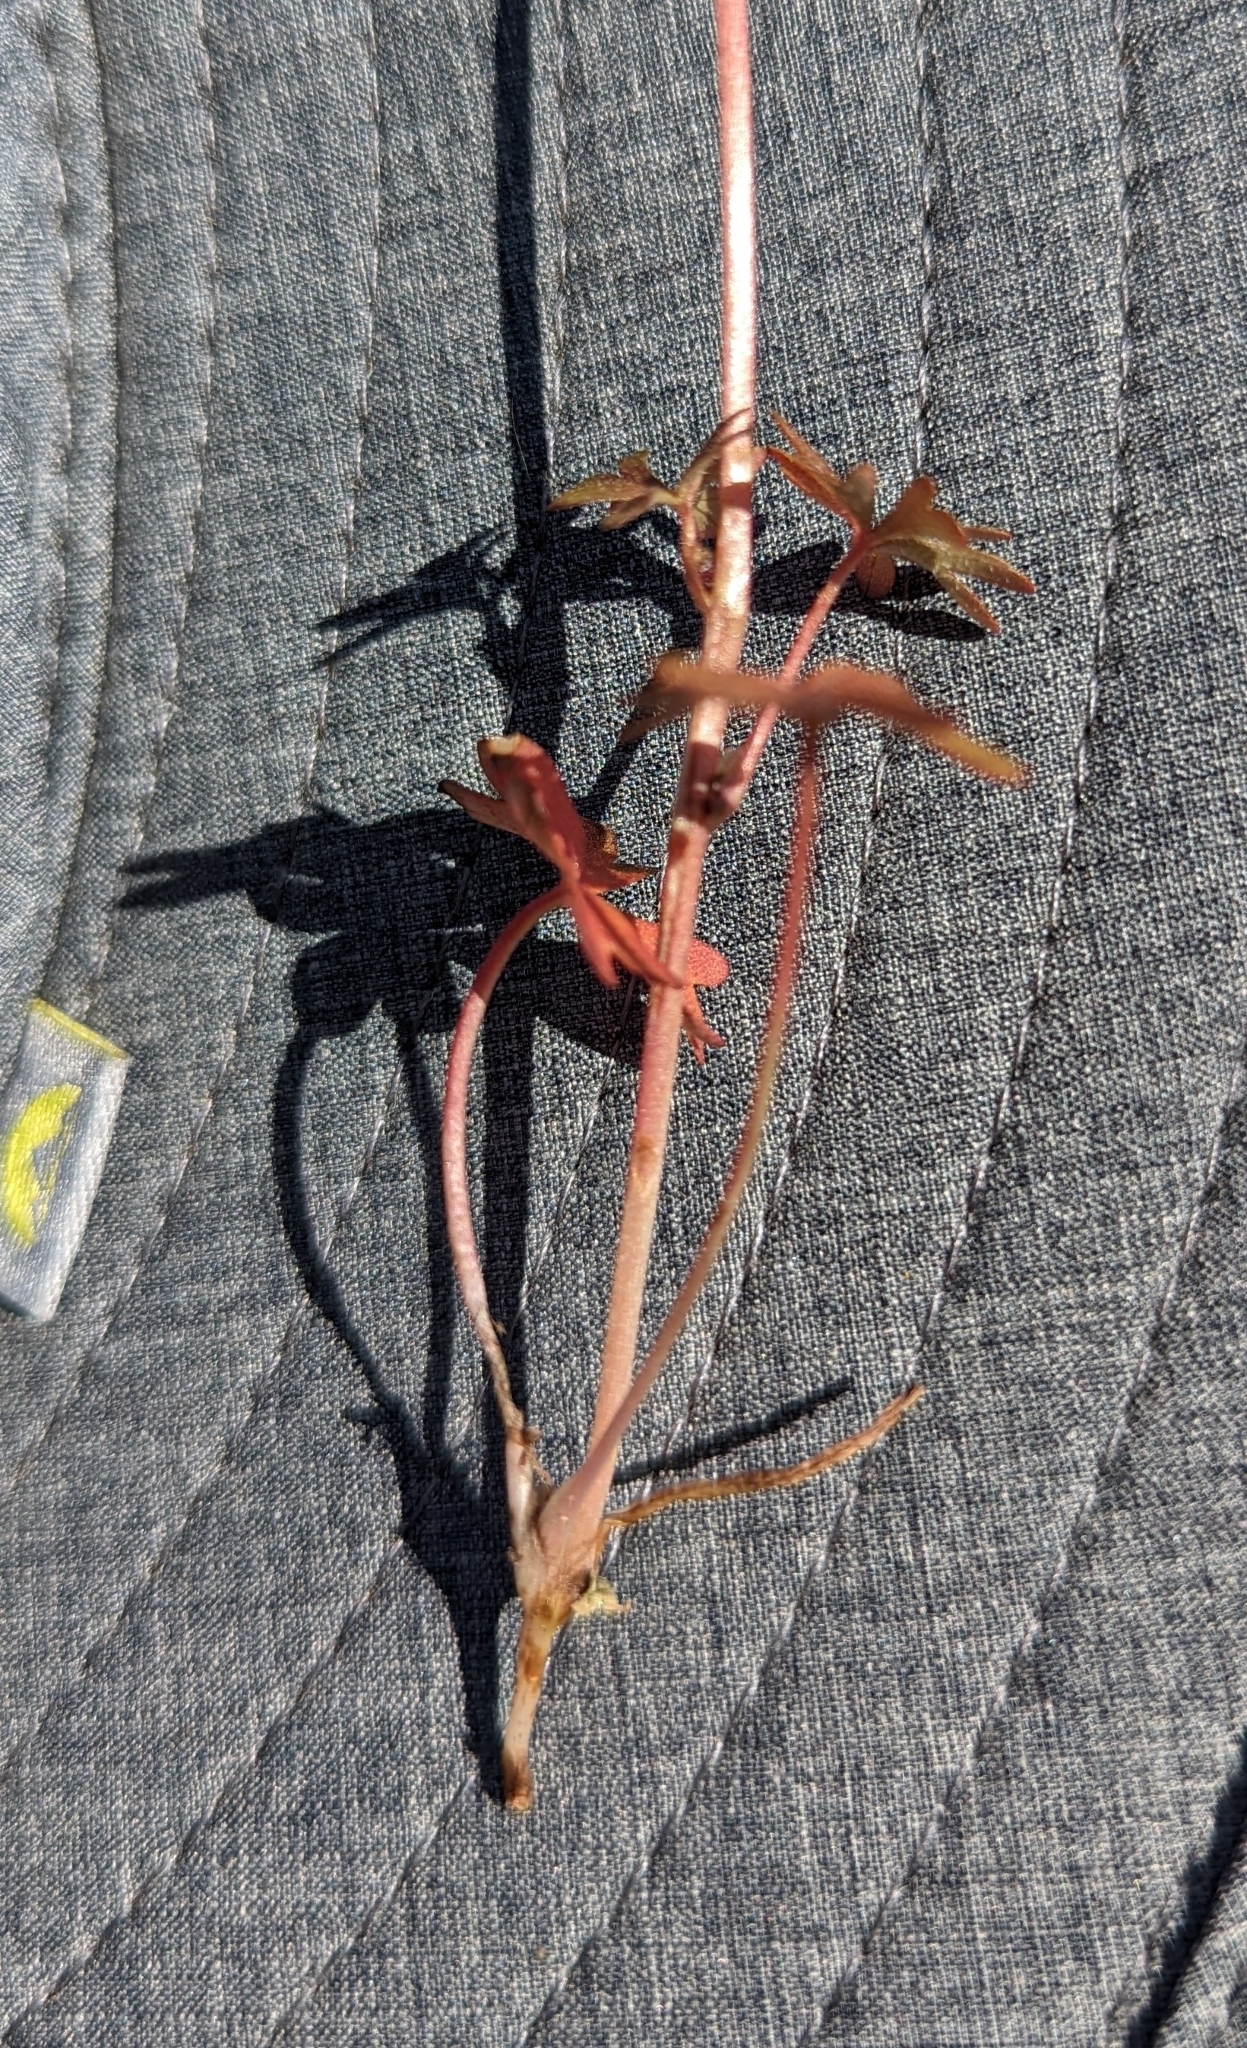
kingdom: Plantae
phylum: Tracheophyta
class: Magnoliopsida
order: Saxifragales
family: Saxifragaceae
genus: Lithophragma
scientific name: Lithophragma glabrum
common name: Bulbous prairie-star
